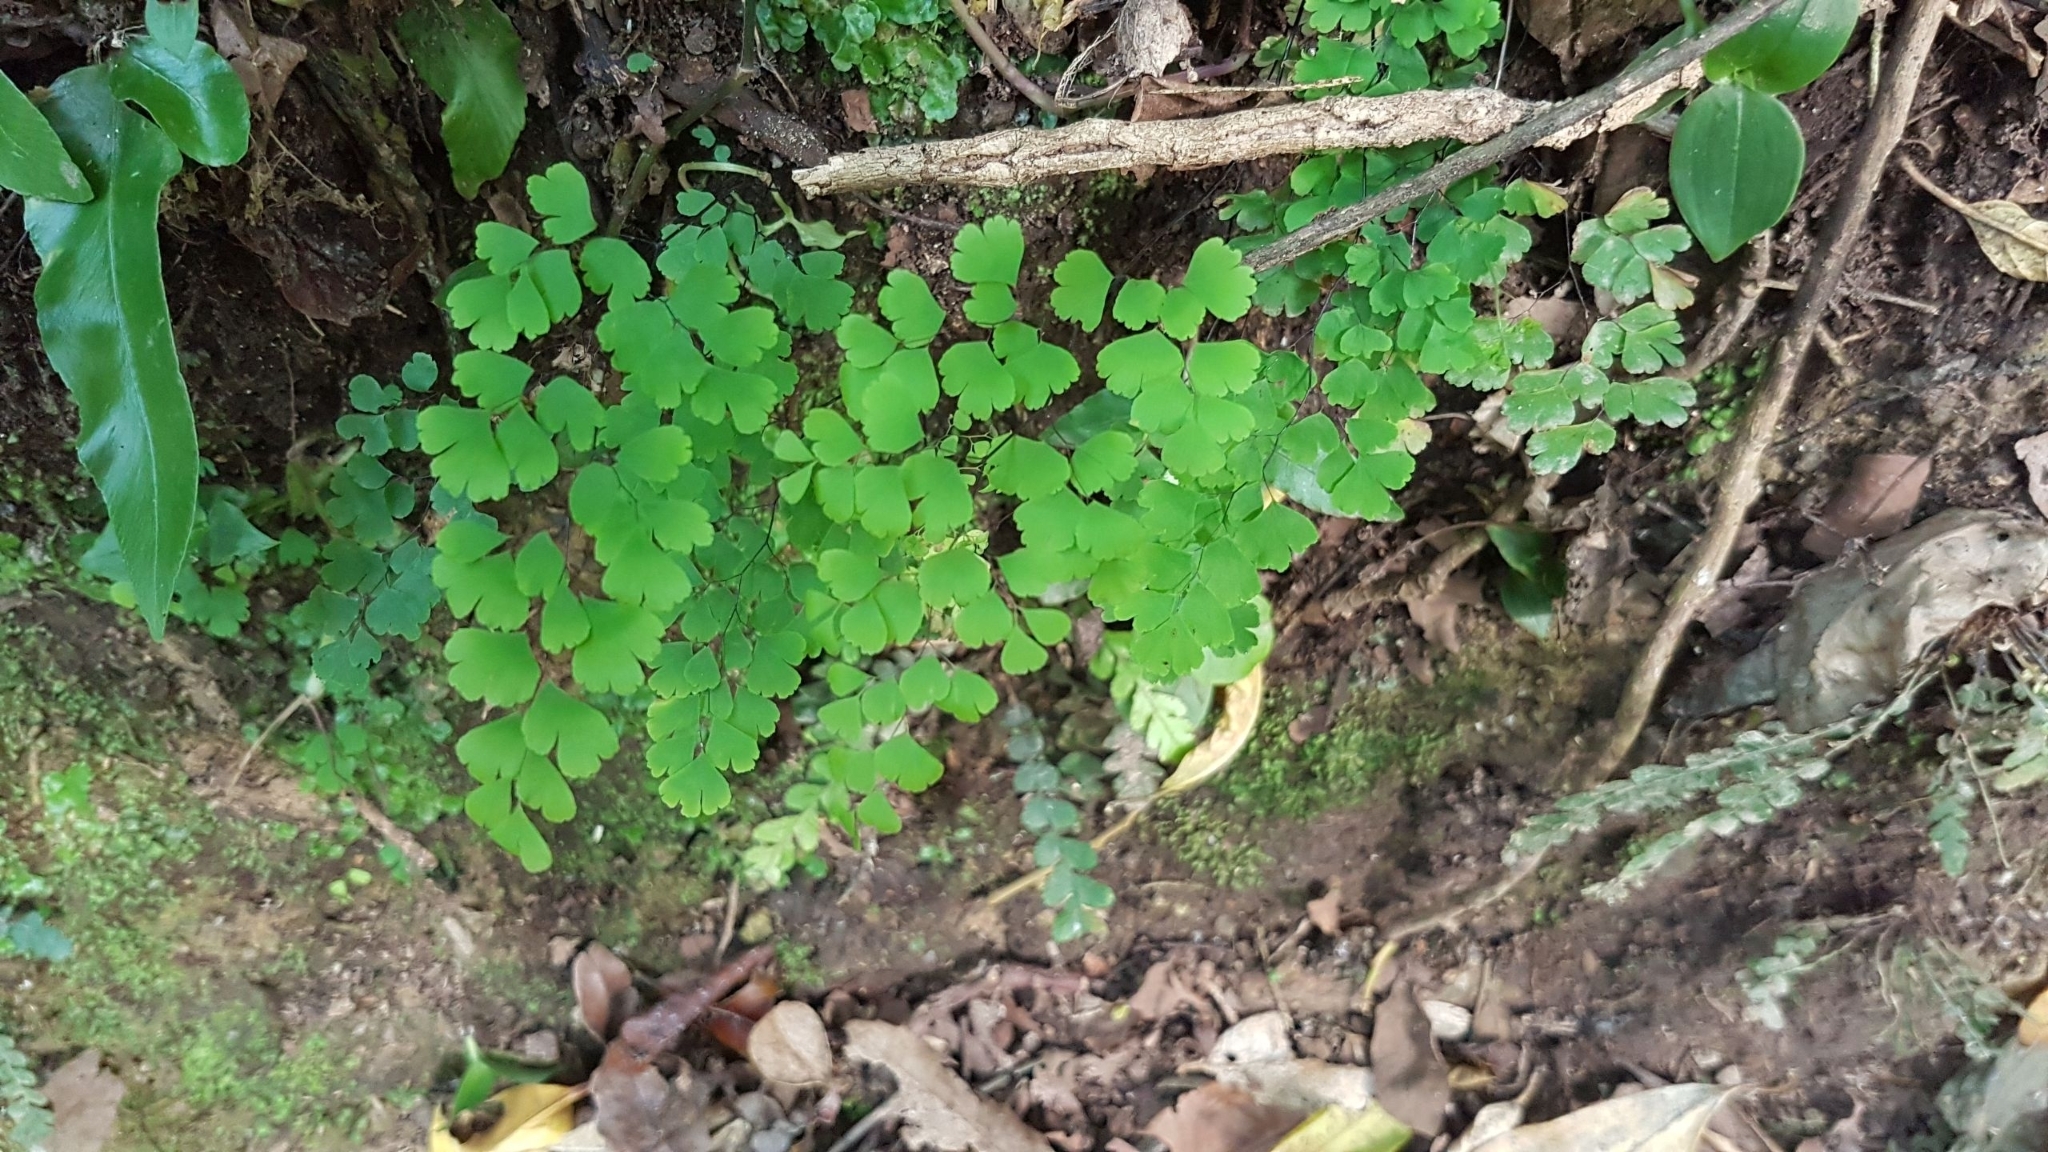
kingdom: Plantae
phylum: Tracheophyta
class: Polypodiopsida
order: Polypodiales
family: Pteridaceae
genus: Adiantum
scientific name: Adiantum raddianum
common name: Delta maidenhair fern
